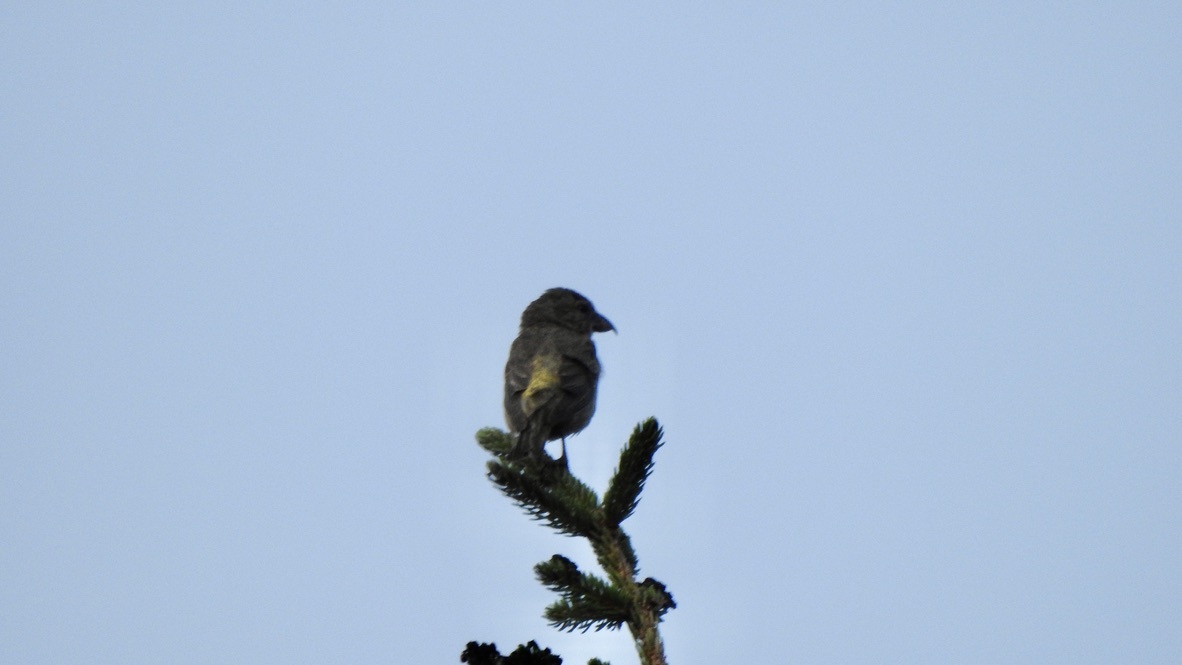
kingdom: Animalia
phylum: Chordata
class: Aves
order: Passeriformes
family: Fringillidae
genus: Loxia
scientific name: Loxia curvirostra
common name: Red crossbill
